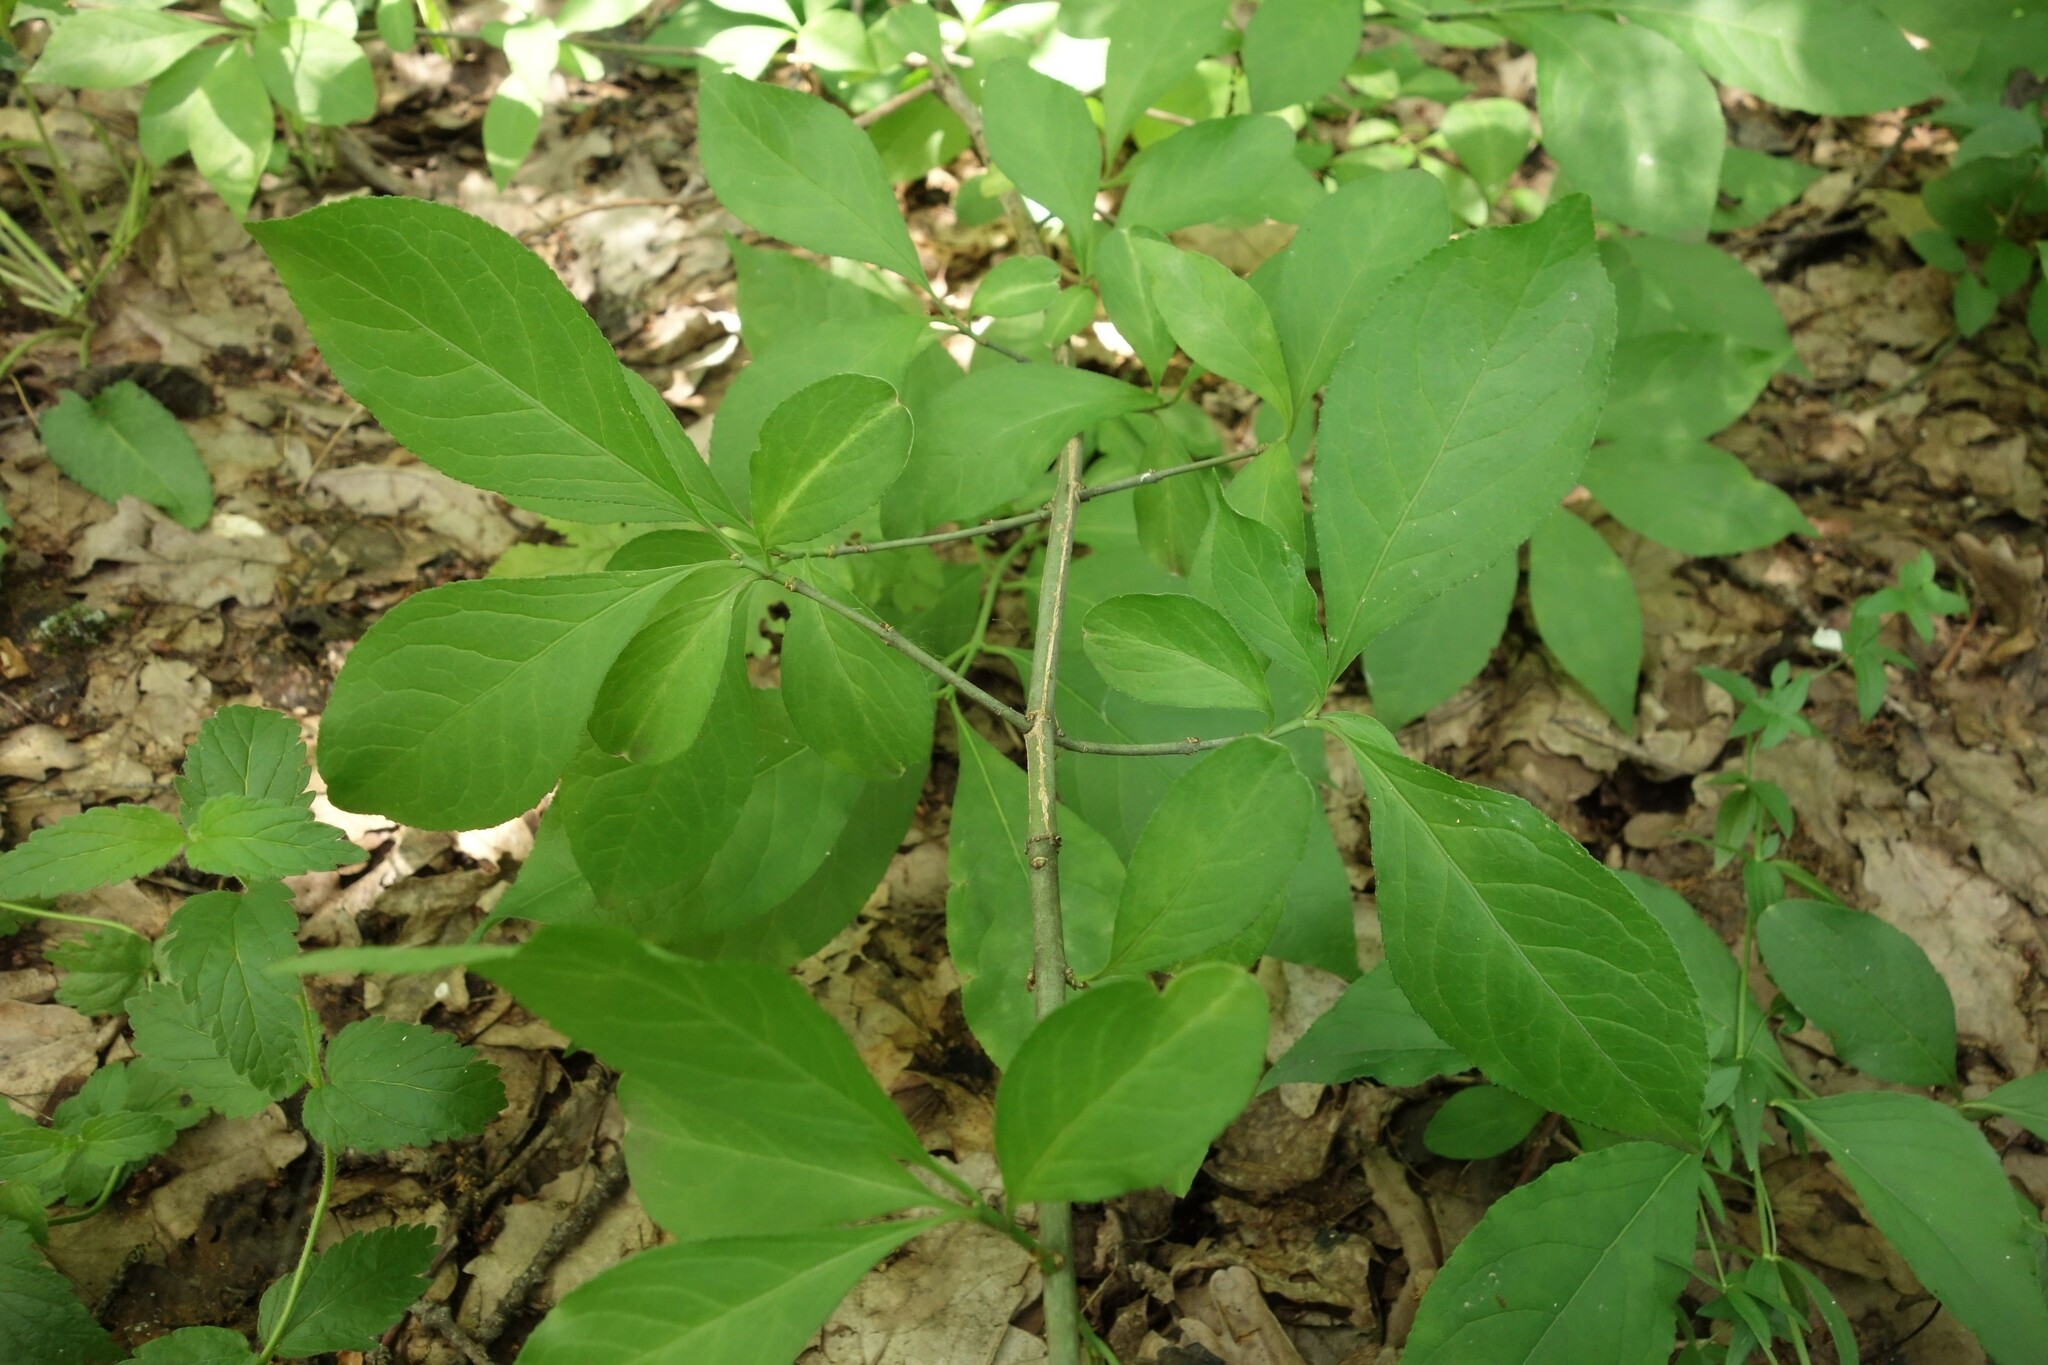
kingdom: Plantae
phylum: Tracheophyta
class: Magnoliopsida
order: Celastrales
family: Celastraceae
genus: Euonymus
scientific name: Euonymus europaeus
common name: Spindle
